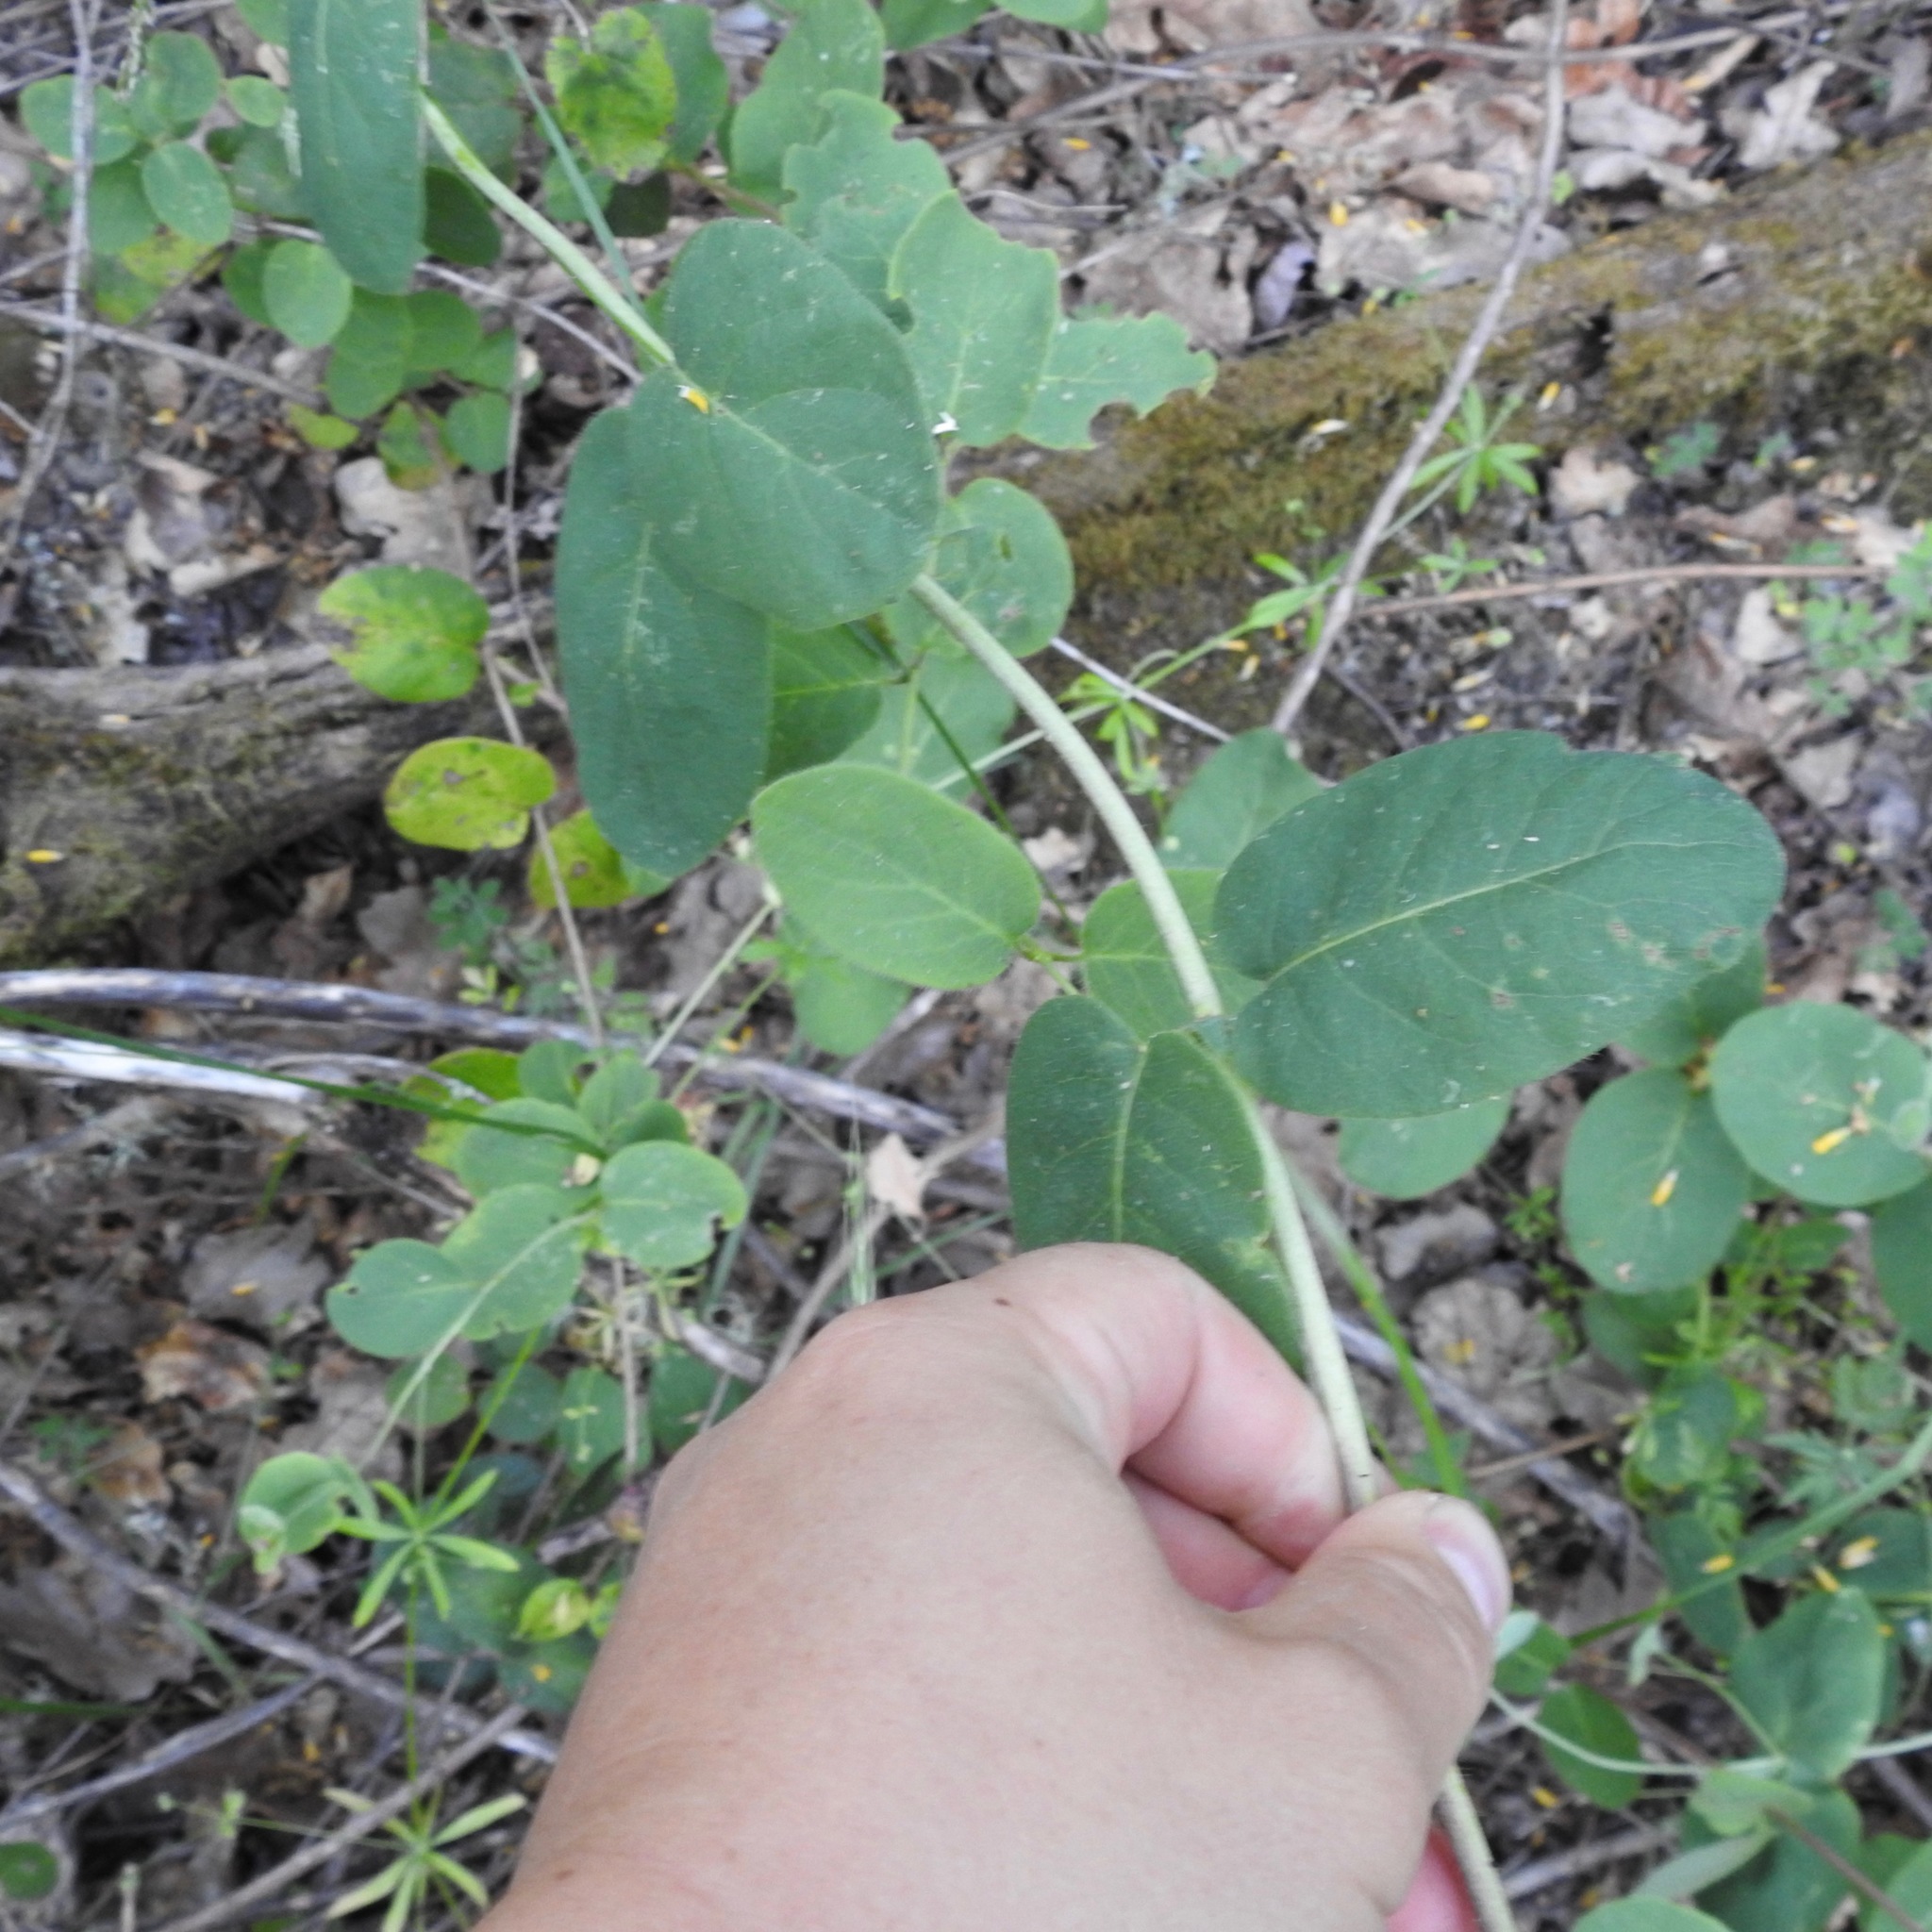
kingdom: Plantae
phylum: Tracheophyta
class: Magnoliopsida
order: Dipsacales
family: Caprifoliaceae
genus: Lonicera
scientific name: Lonicera hispidula
